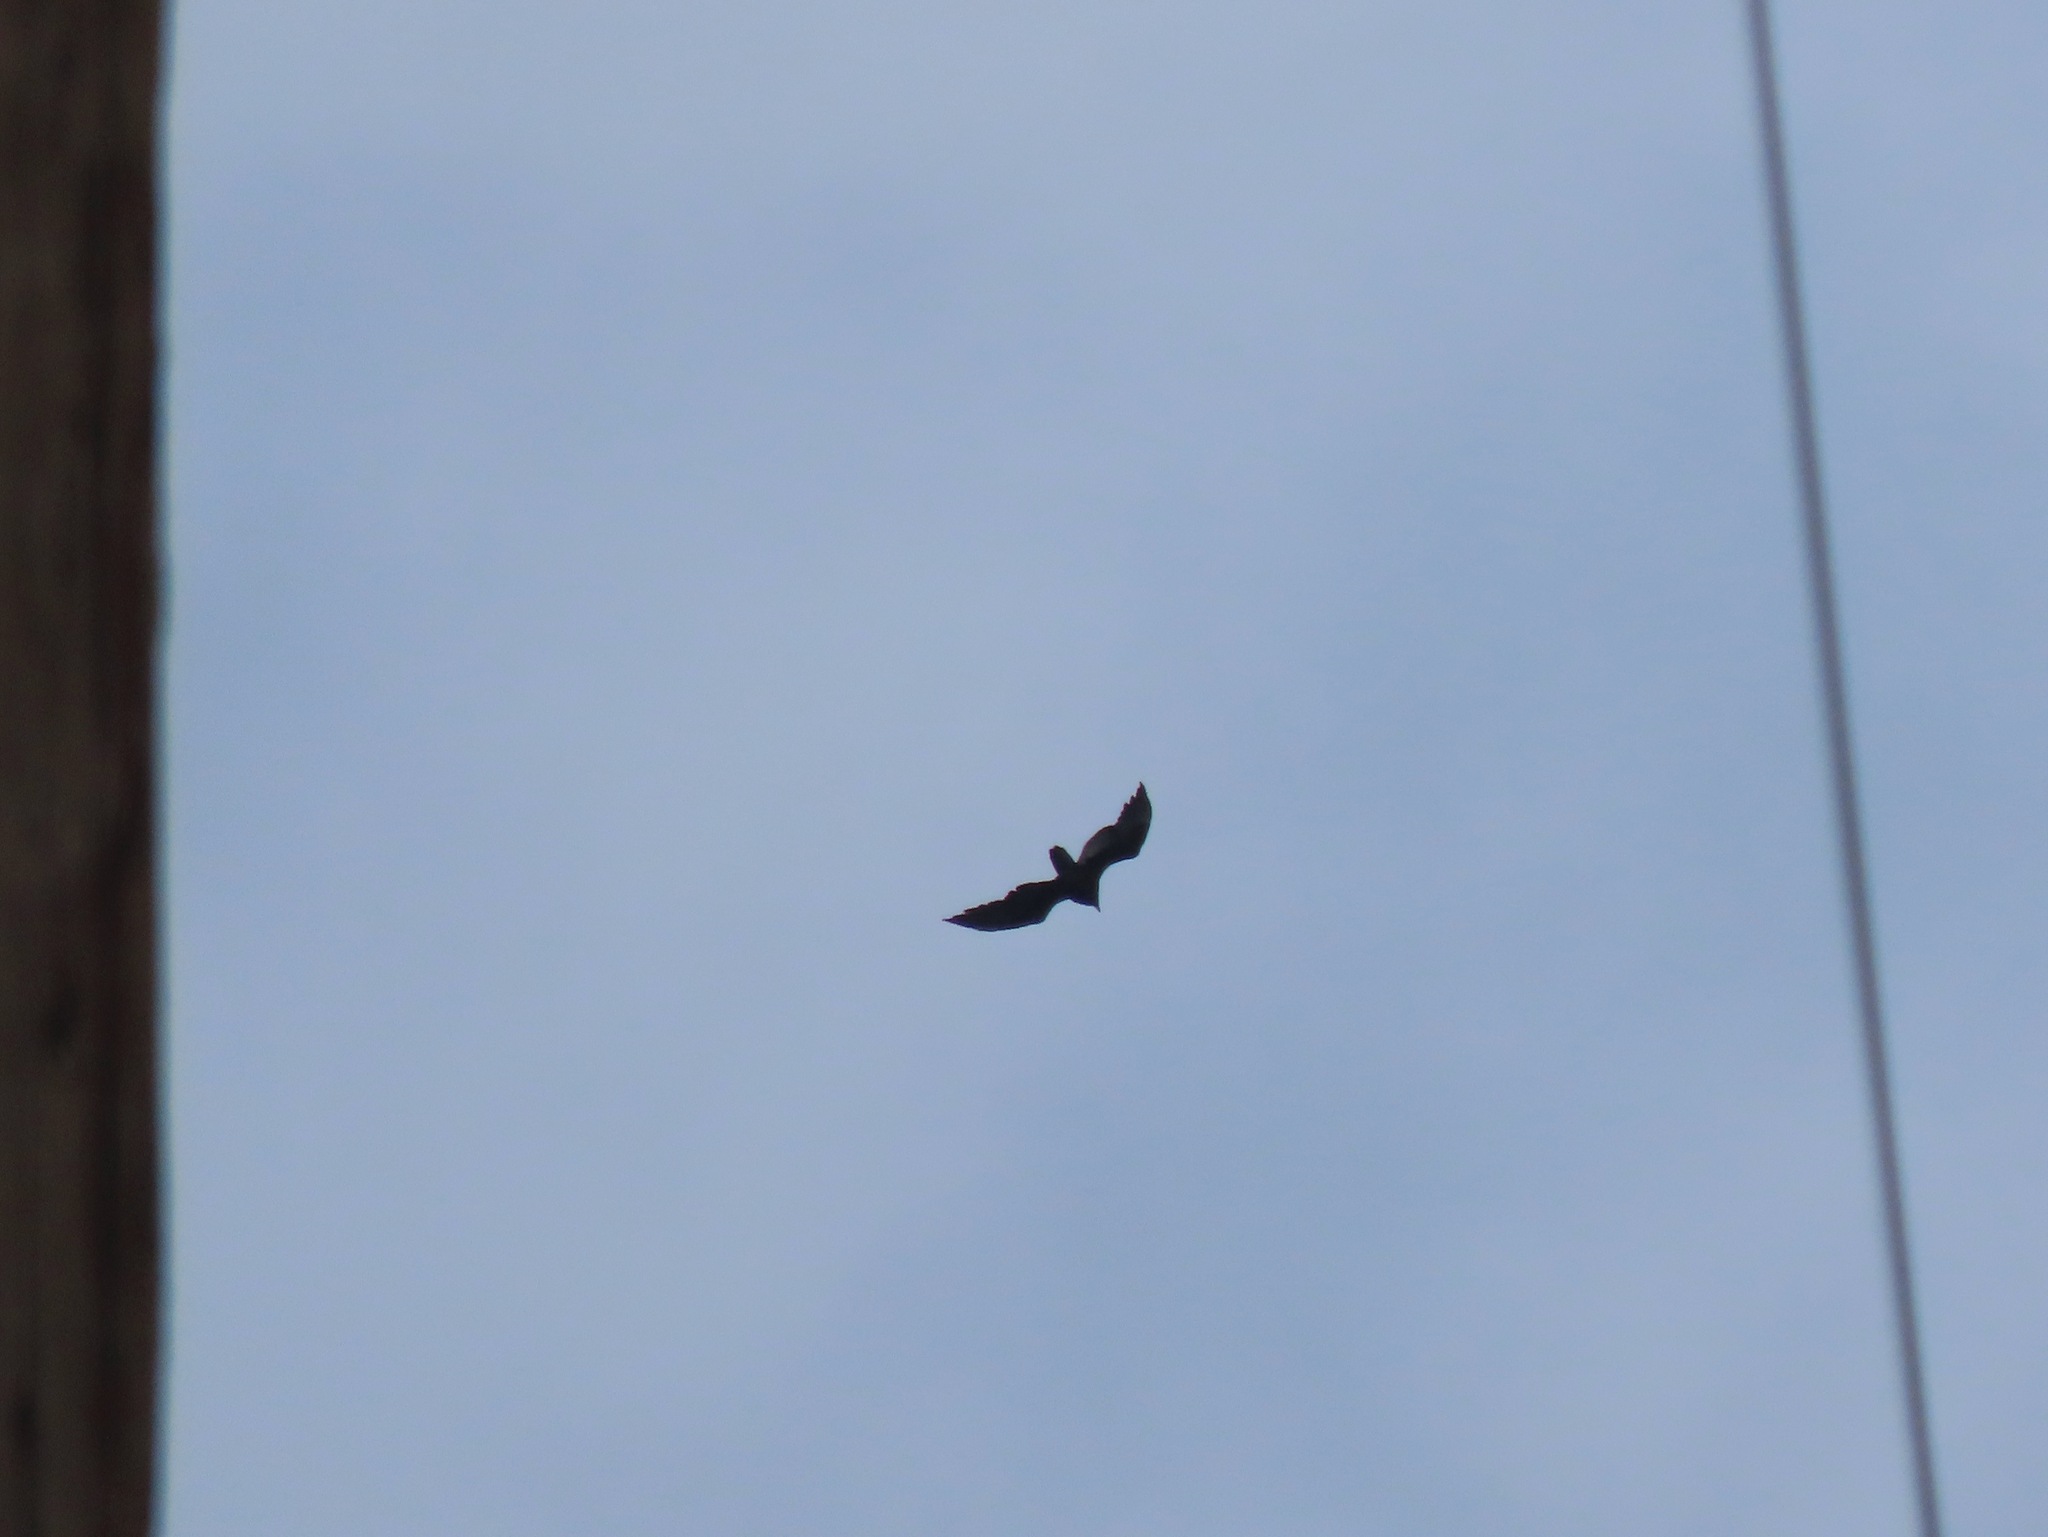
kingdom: Animalia
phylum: Chordata
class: Aves
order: Accipitriformes
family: Cathartidae
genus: Cathartes
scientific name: Cathartes aura
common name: Turkey vulture
